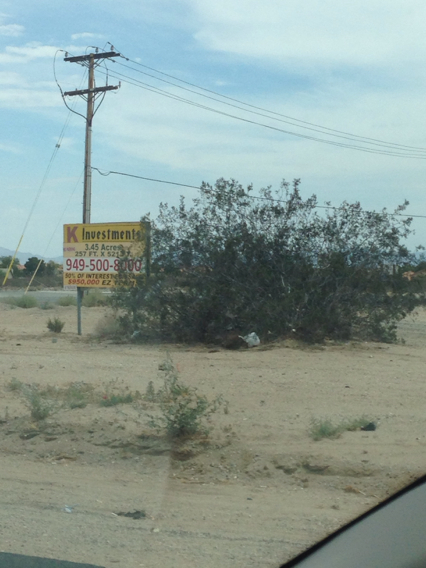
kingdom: Plantae
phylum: Tracheophyta
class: Magnoliopsida
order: Zygophyllales
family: Zygophyllaceae
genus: Larrea
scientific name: Larrea tridentata
